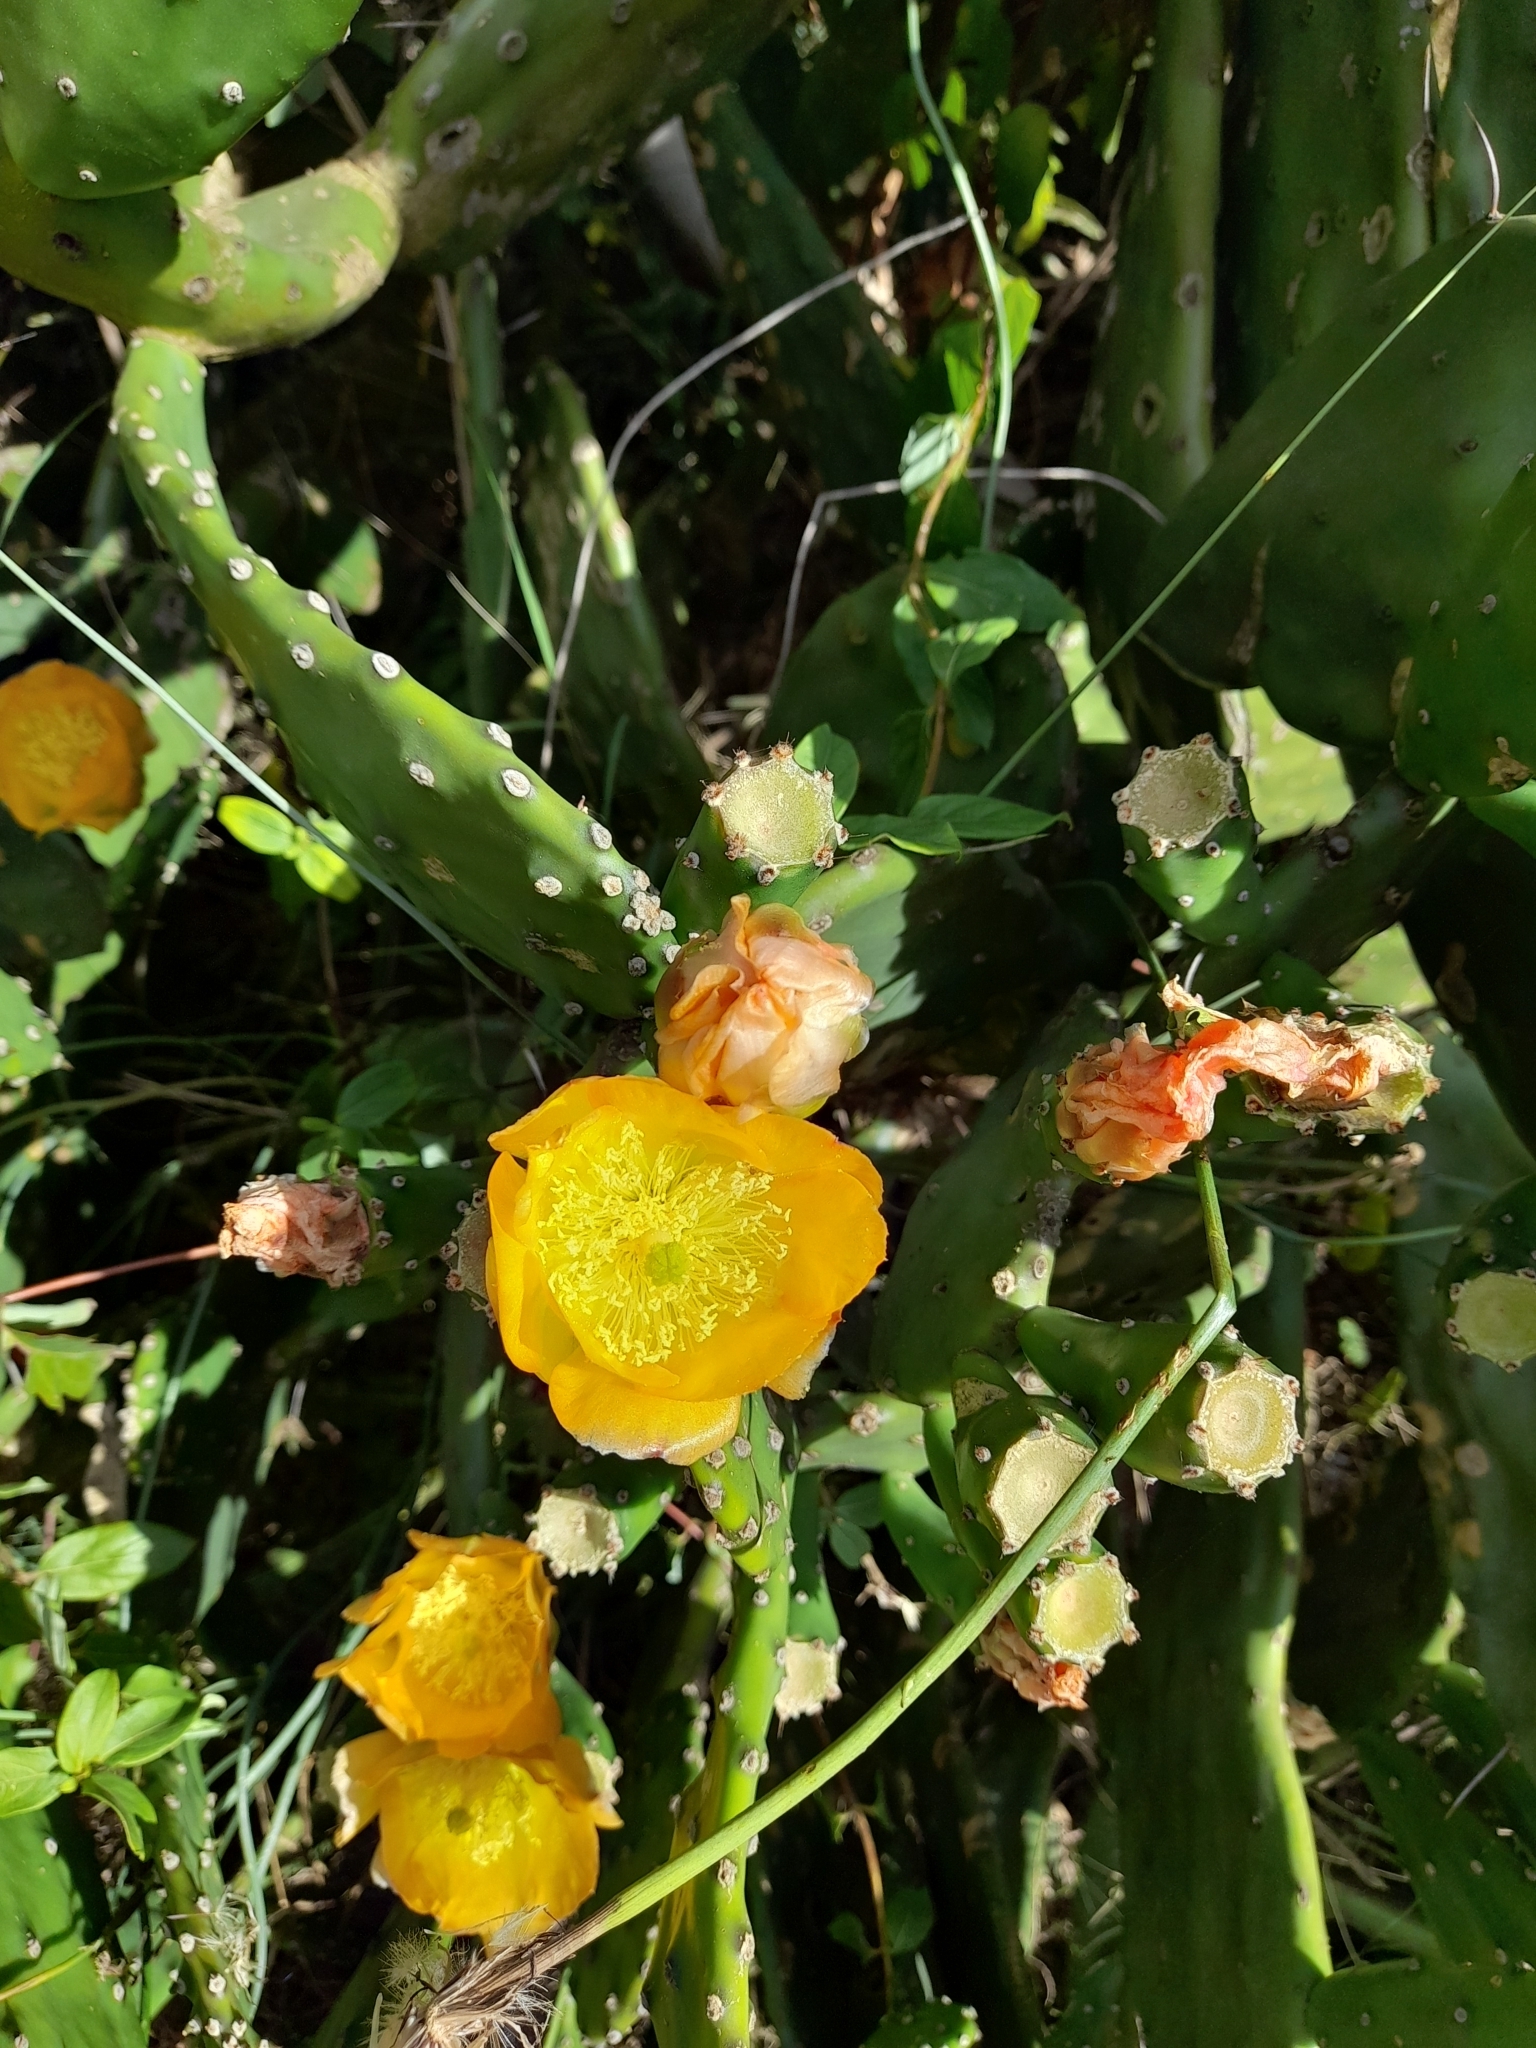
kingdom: Plantae
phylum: Tracheophyta
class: Magnoliopsida
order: Caryophyllales
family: Cactaceae
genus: Opuntia
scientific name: Opuntia elata
